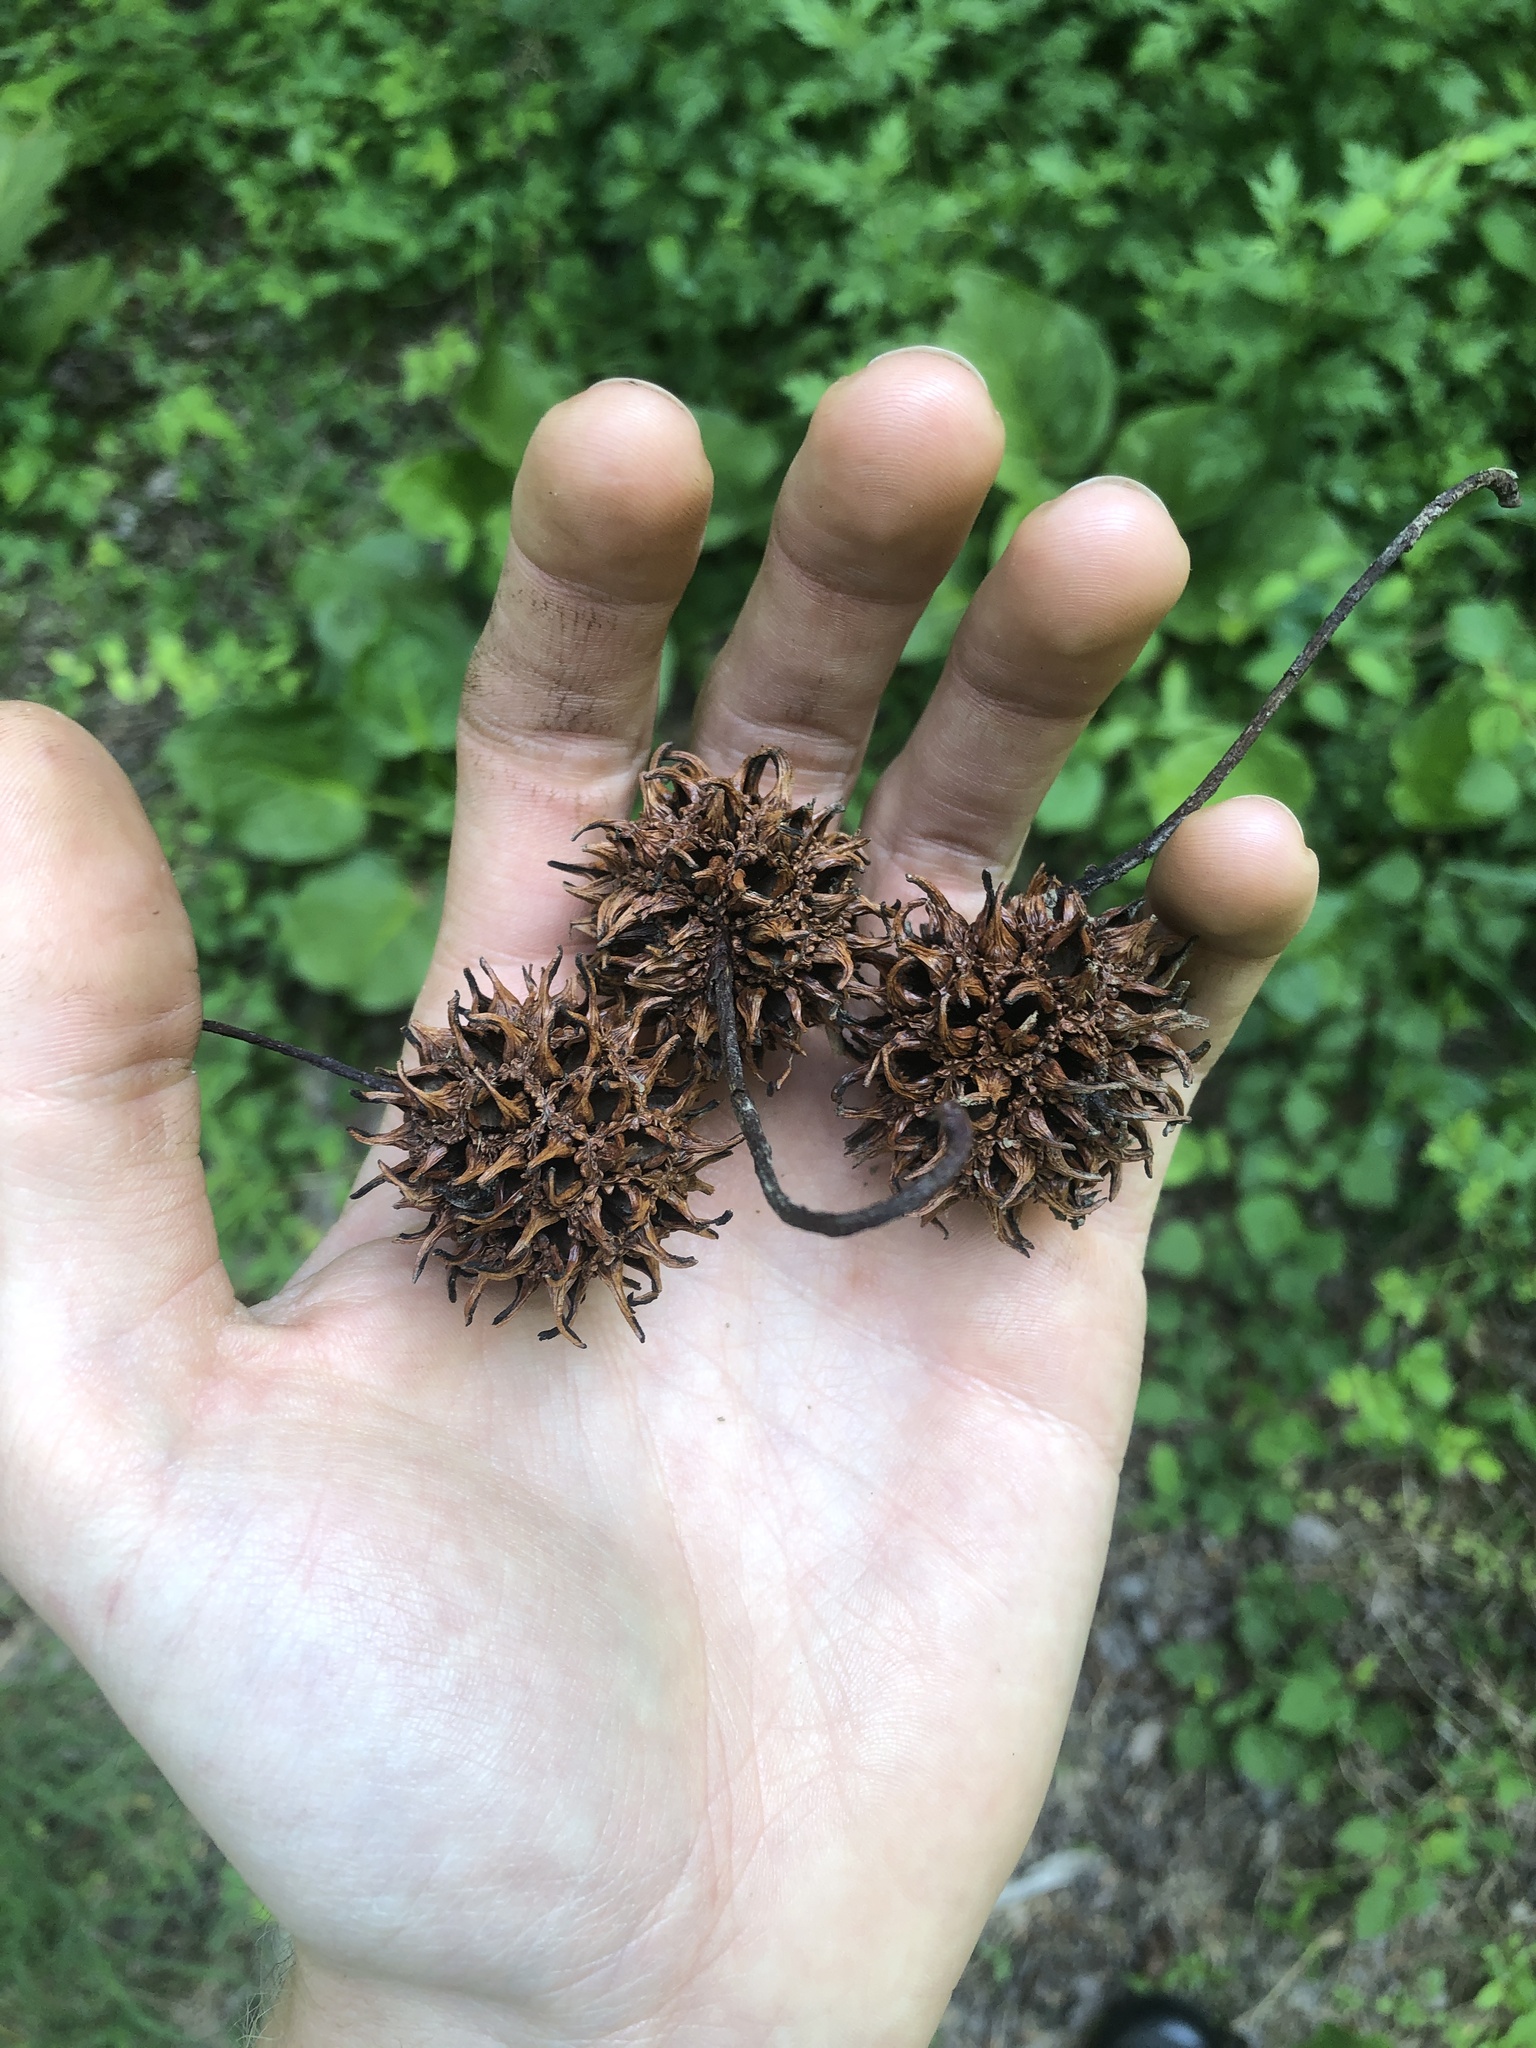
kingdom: Plantae
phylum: Tracheophyta
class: Magnoliopsida
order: Saxifragales
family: Altingiaceae
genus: Liquidambar
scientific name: Liquidambar styraciflua
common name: Sweet gum
